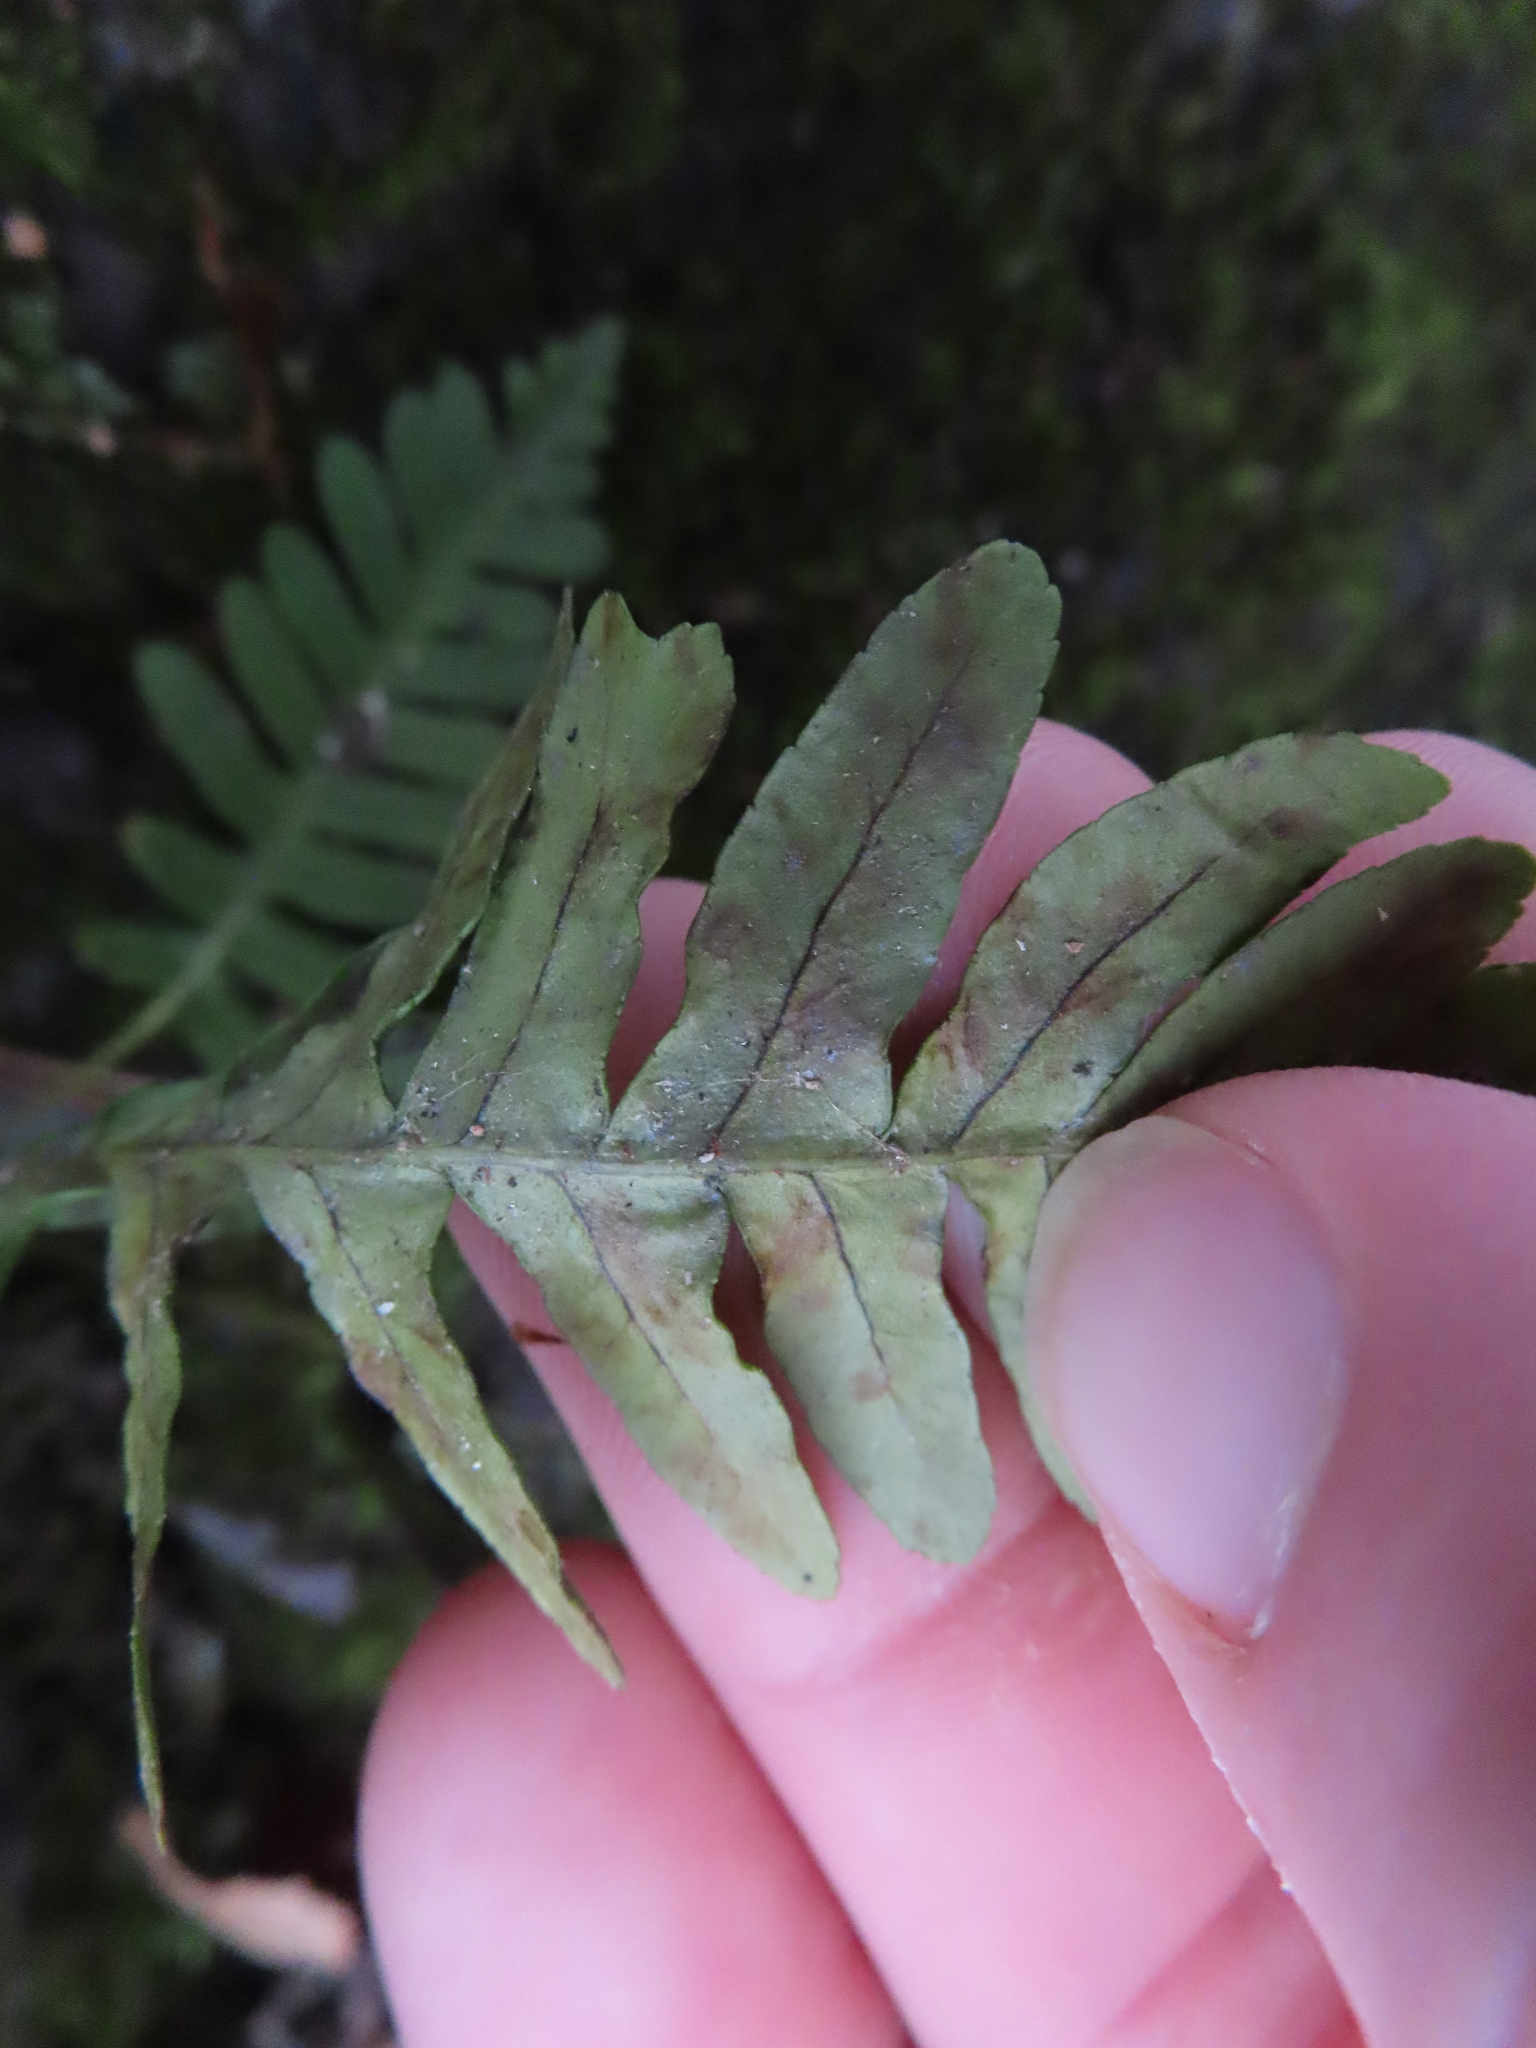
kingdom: Plantae
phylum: Tracheophyta
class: Polypodiopsida
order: Polypodiales
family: Polypodiaceae
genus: Polypodium
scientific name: Polypodium virginianum
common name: American wall fern
